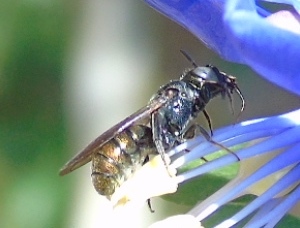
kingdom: Animalia
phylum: Arthropoda
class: Insecta
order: Hymenoptera
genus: Calloceratina
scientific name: Calloceratina
